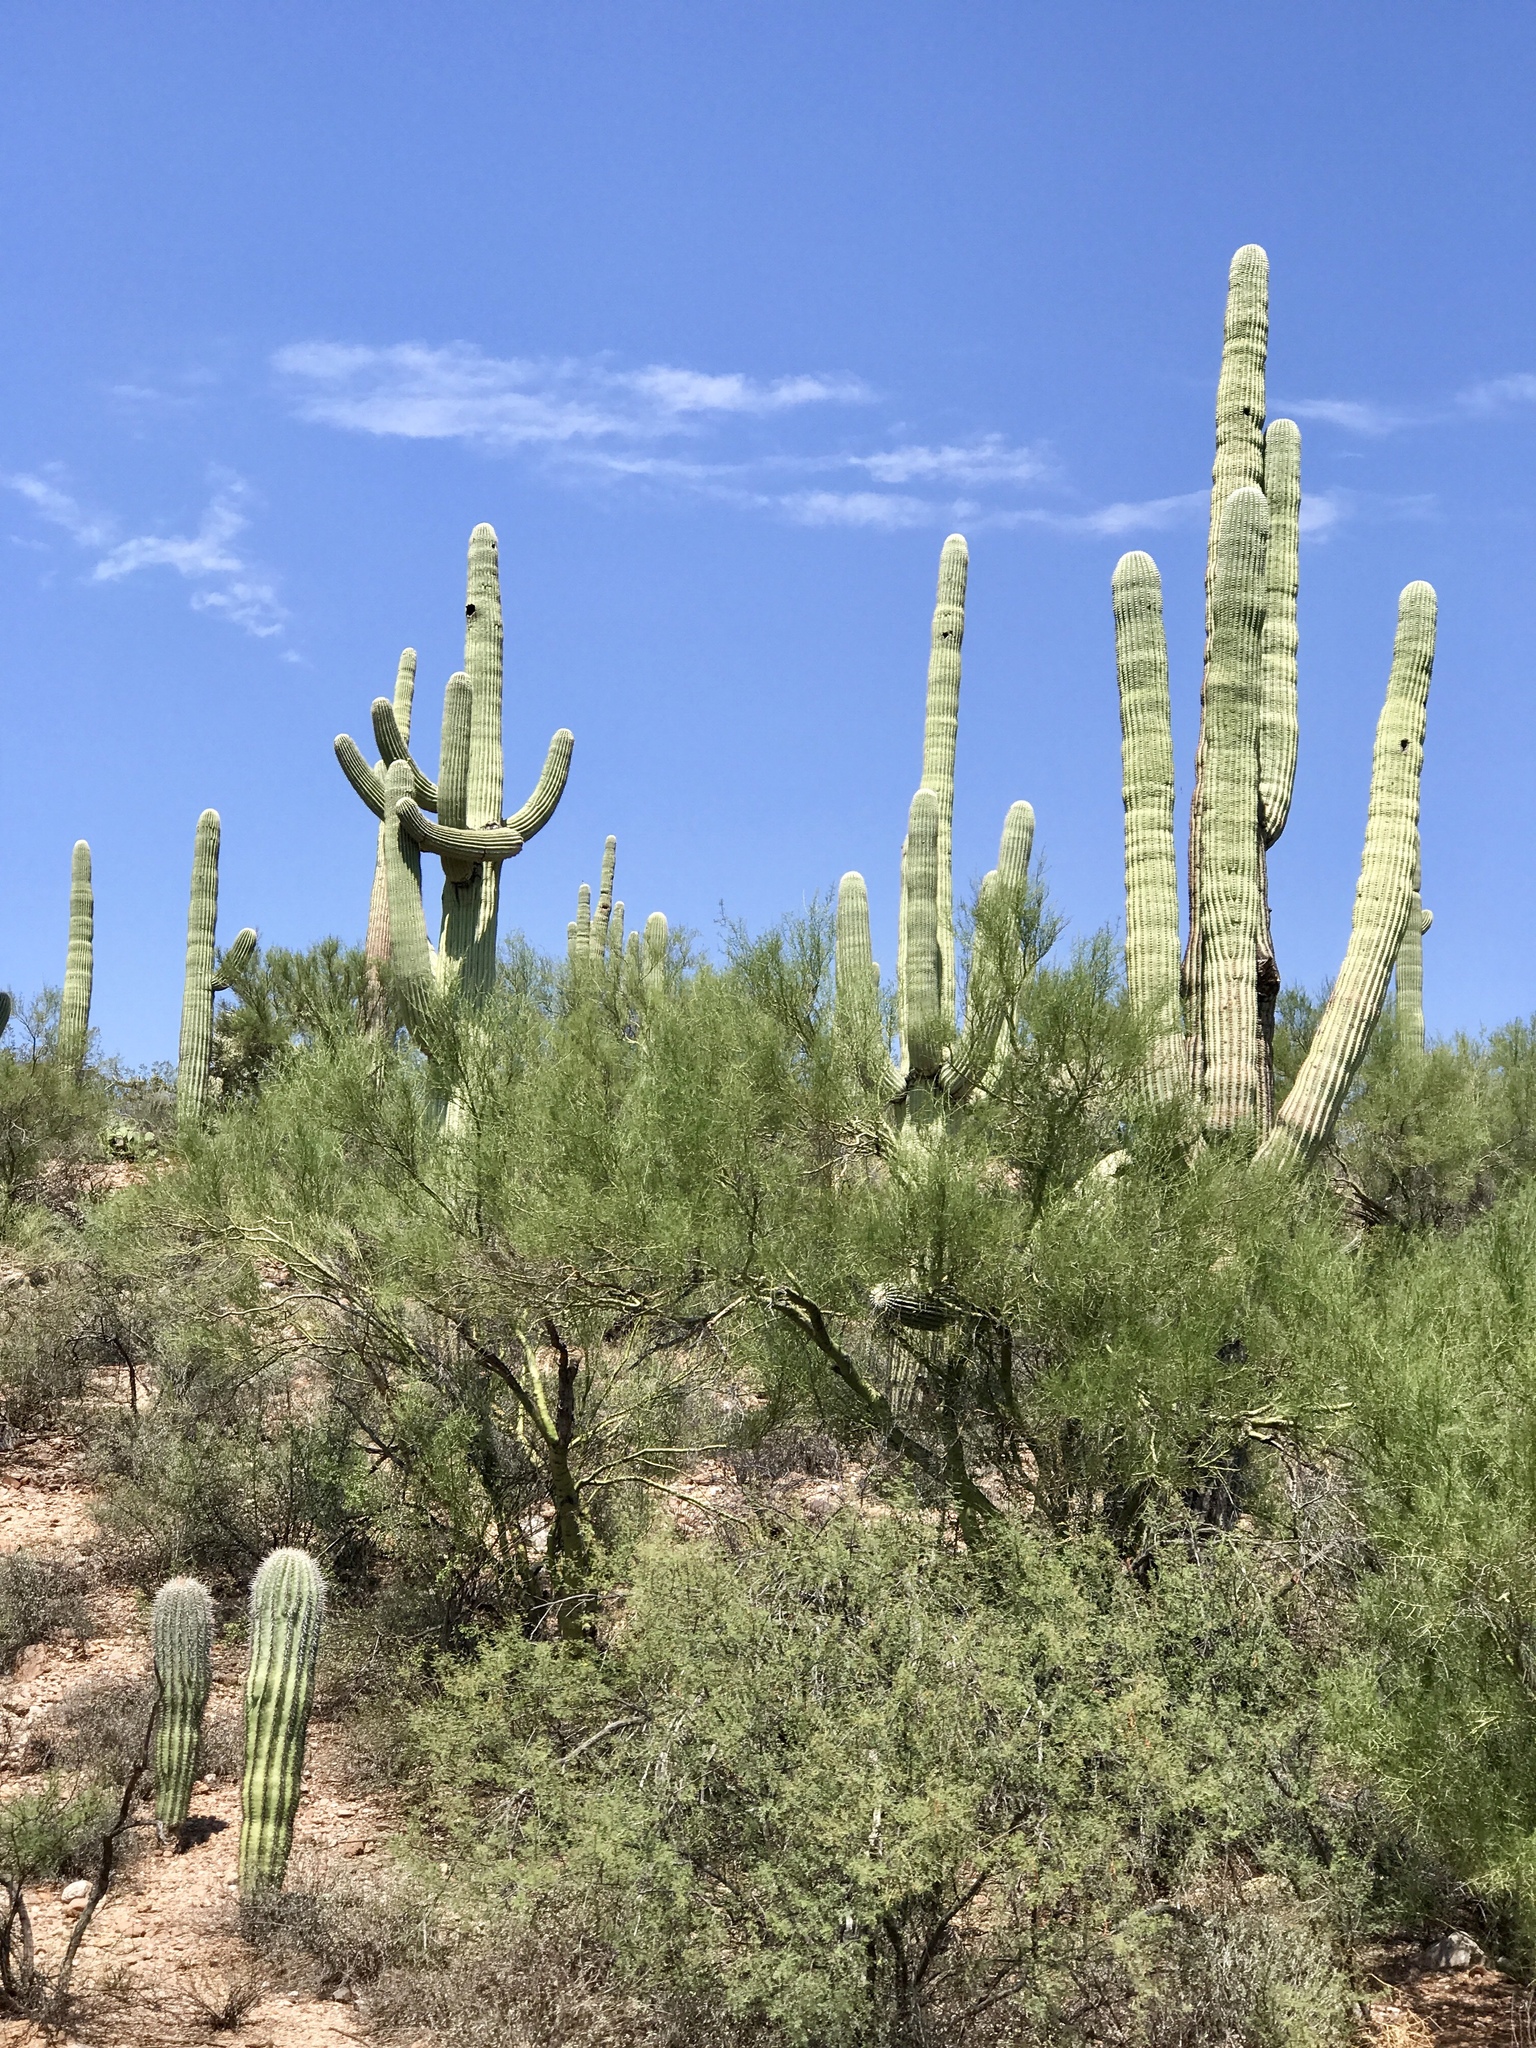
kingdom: Plantae
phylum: Tracheophyta
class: Magnoliopsida
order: Caryophyllales
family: Cactaceae
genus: Carnegiea
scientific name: Carnegiea gigantea
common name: Saguaro
